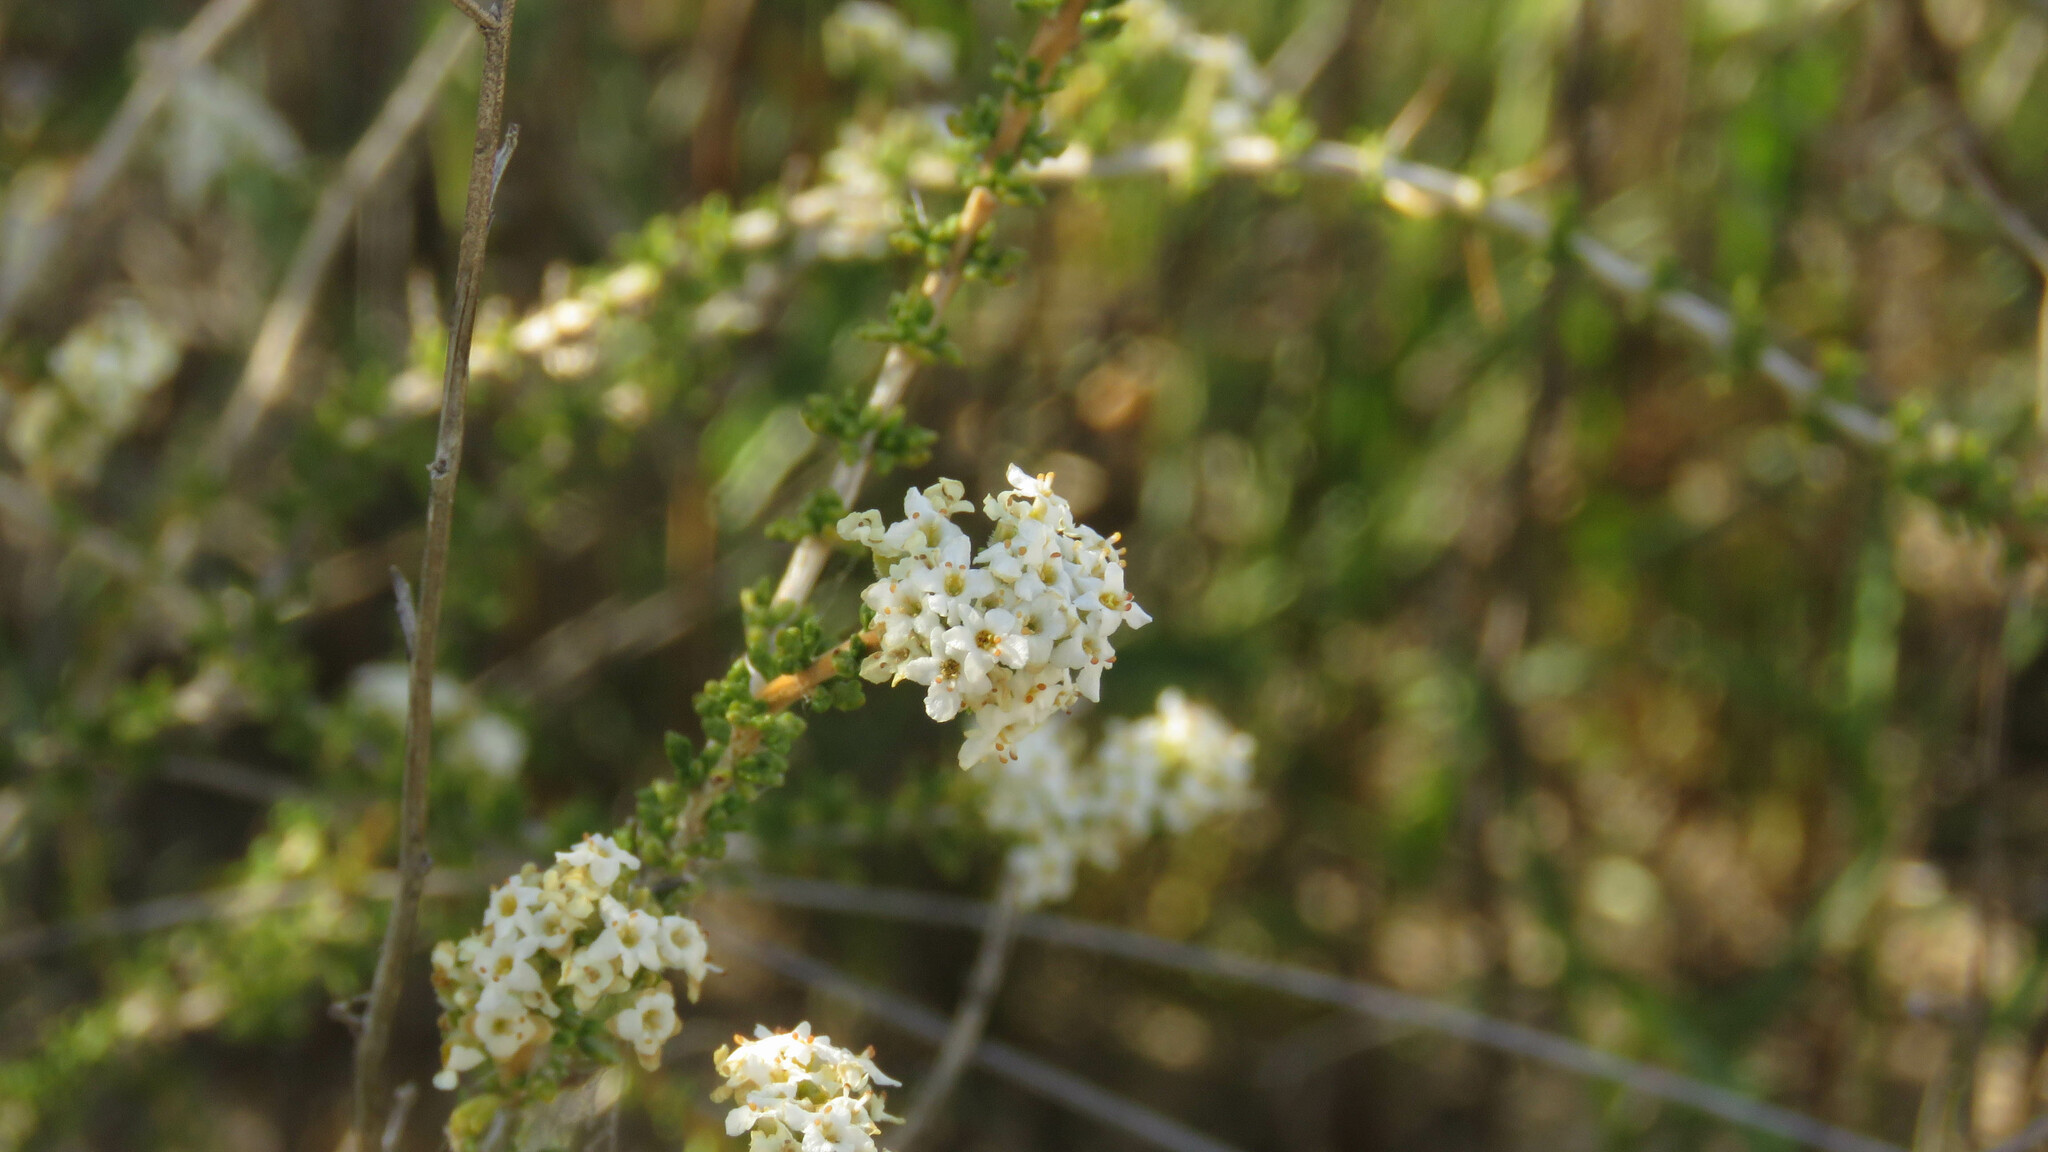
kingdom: Plantae
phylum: Tracheophyta
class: Magnoliopsida
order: Lamiales
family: Verbenaceae
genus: Acantholippia
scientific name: Acantholippia seriphioides
